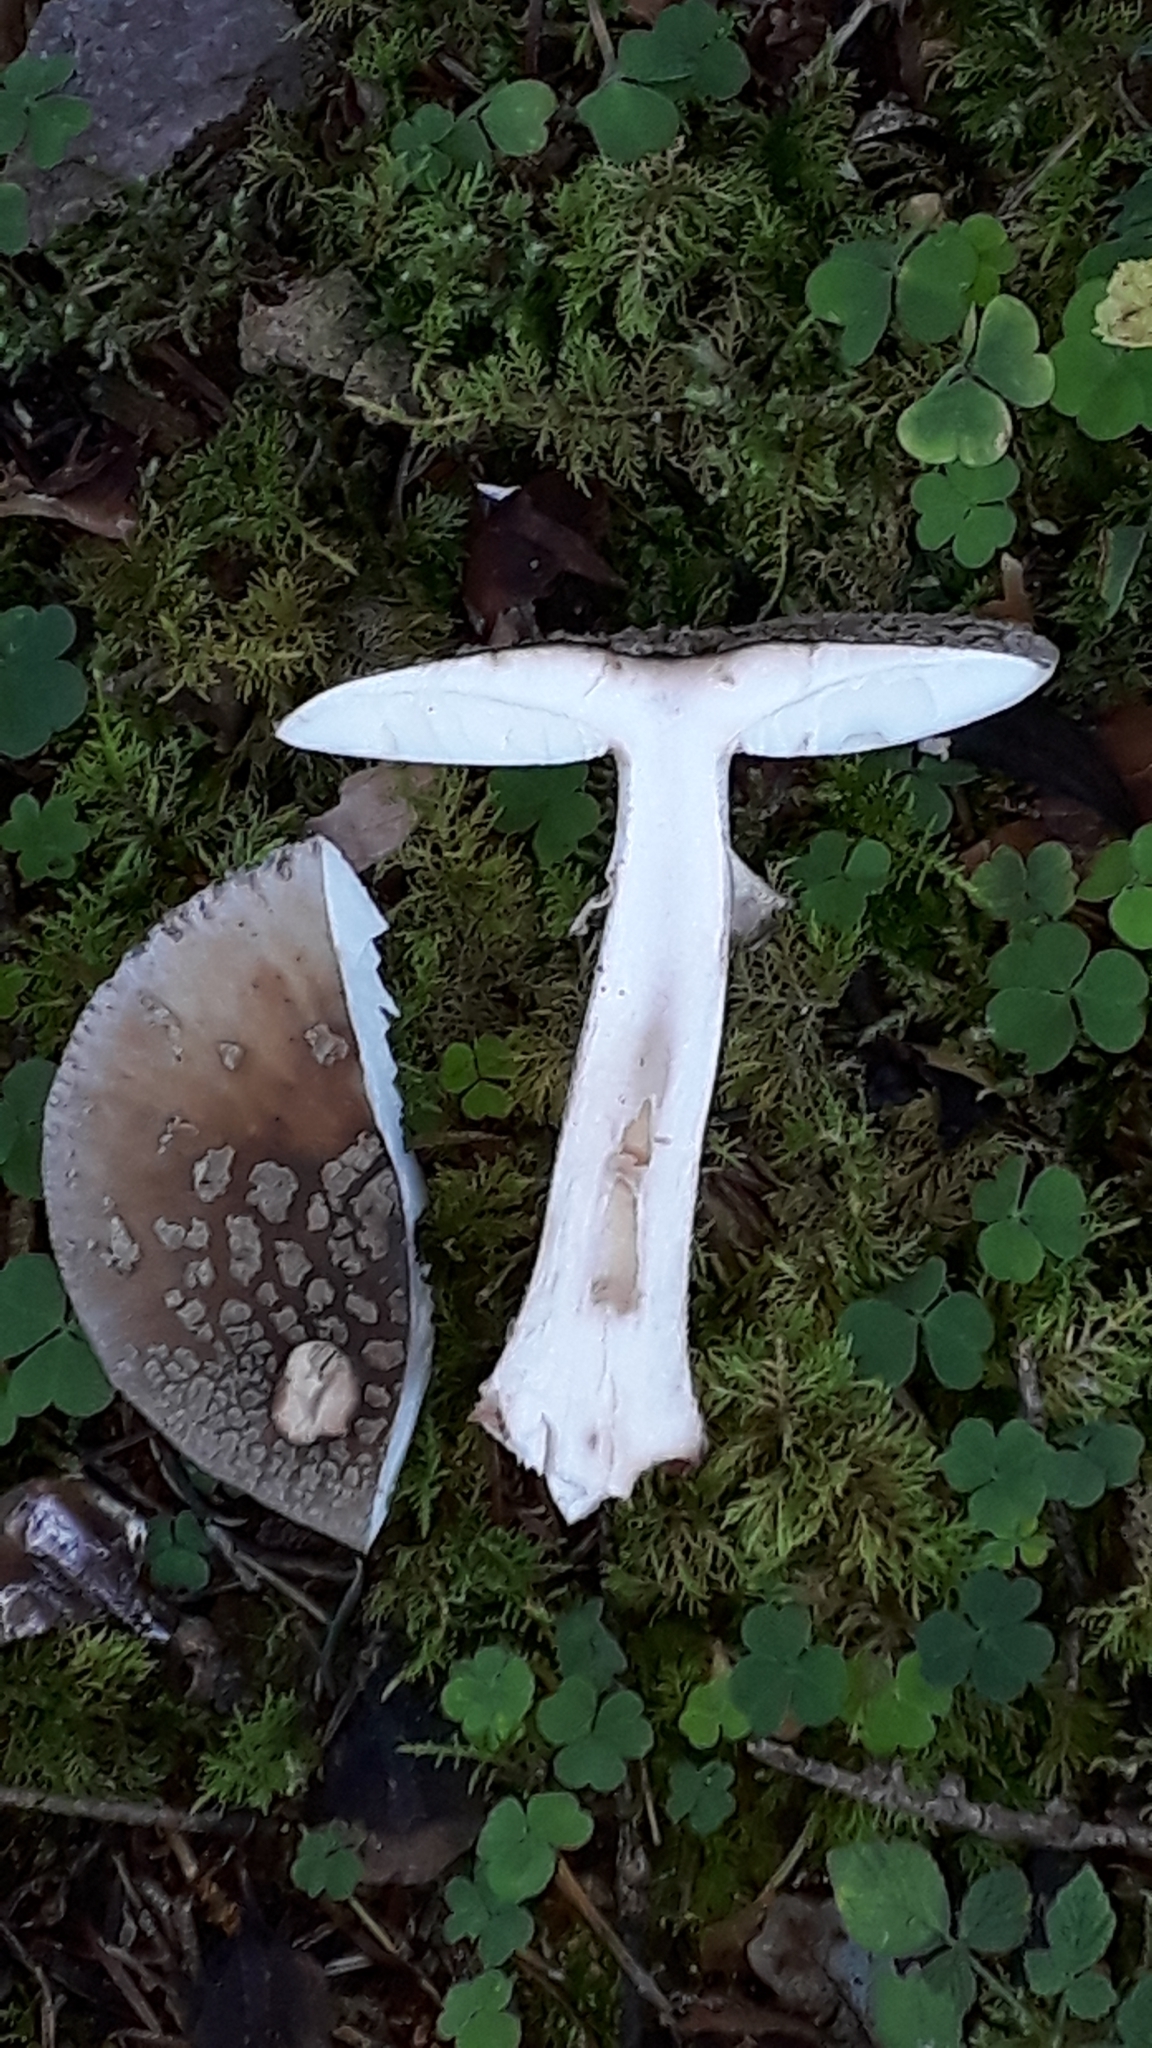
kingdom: Fungi
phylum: Basidiomycota
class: Agaricomycetes
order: Agaricales
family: Amanitaceae
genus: Amanita
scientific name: Amanita rubescens
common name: Blusher
